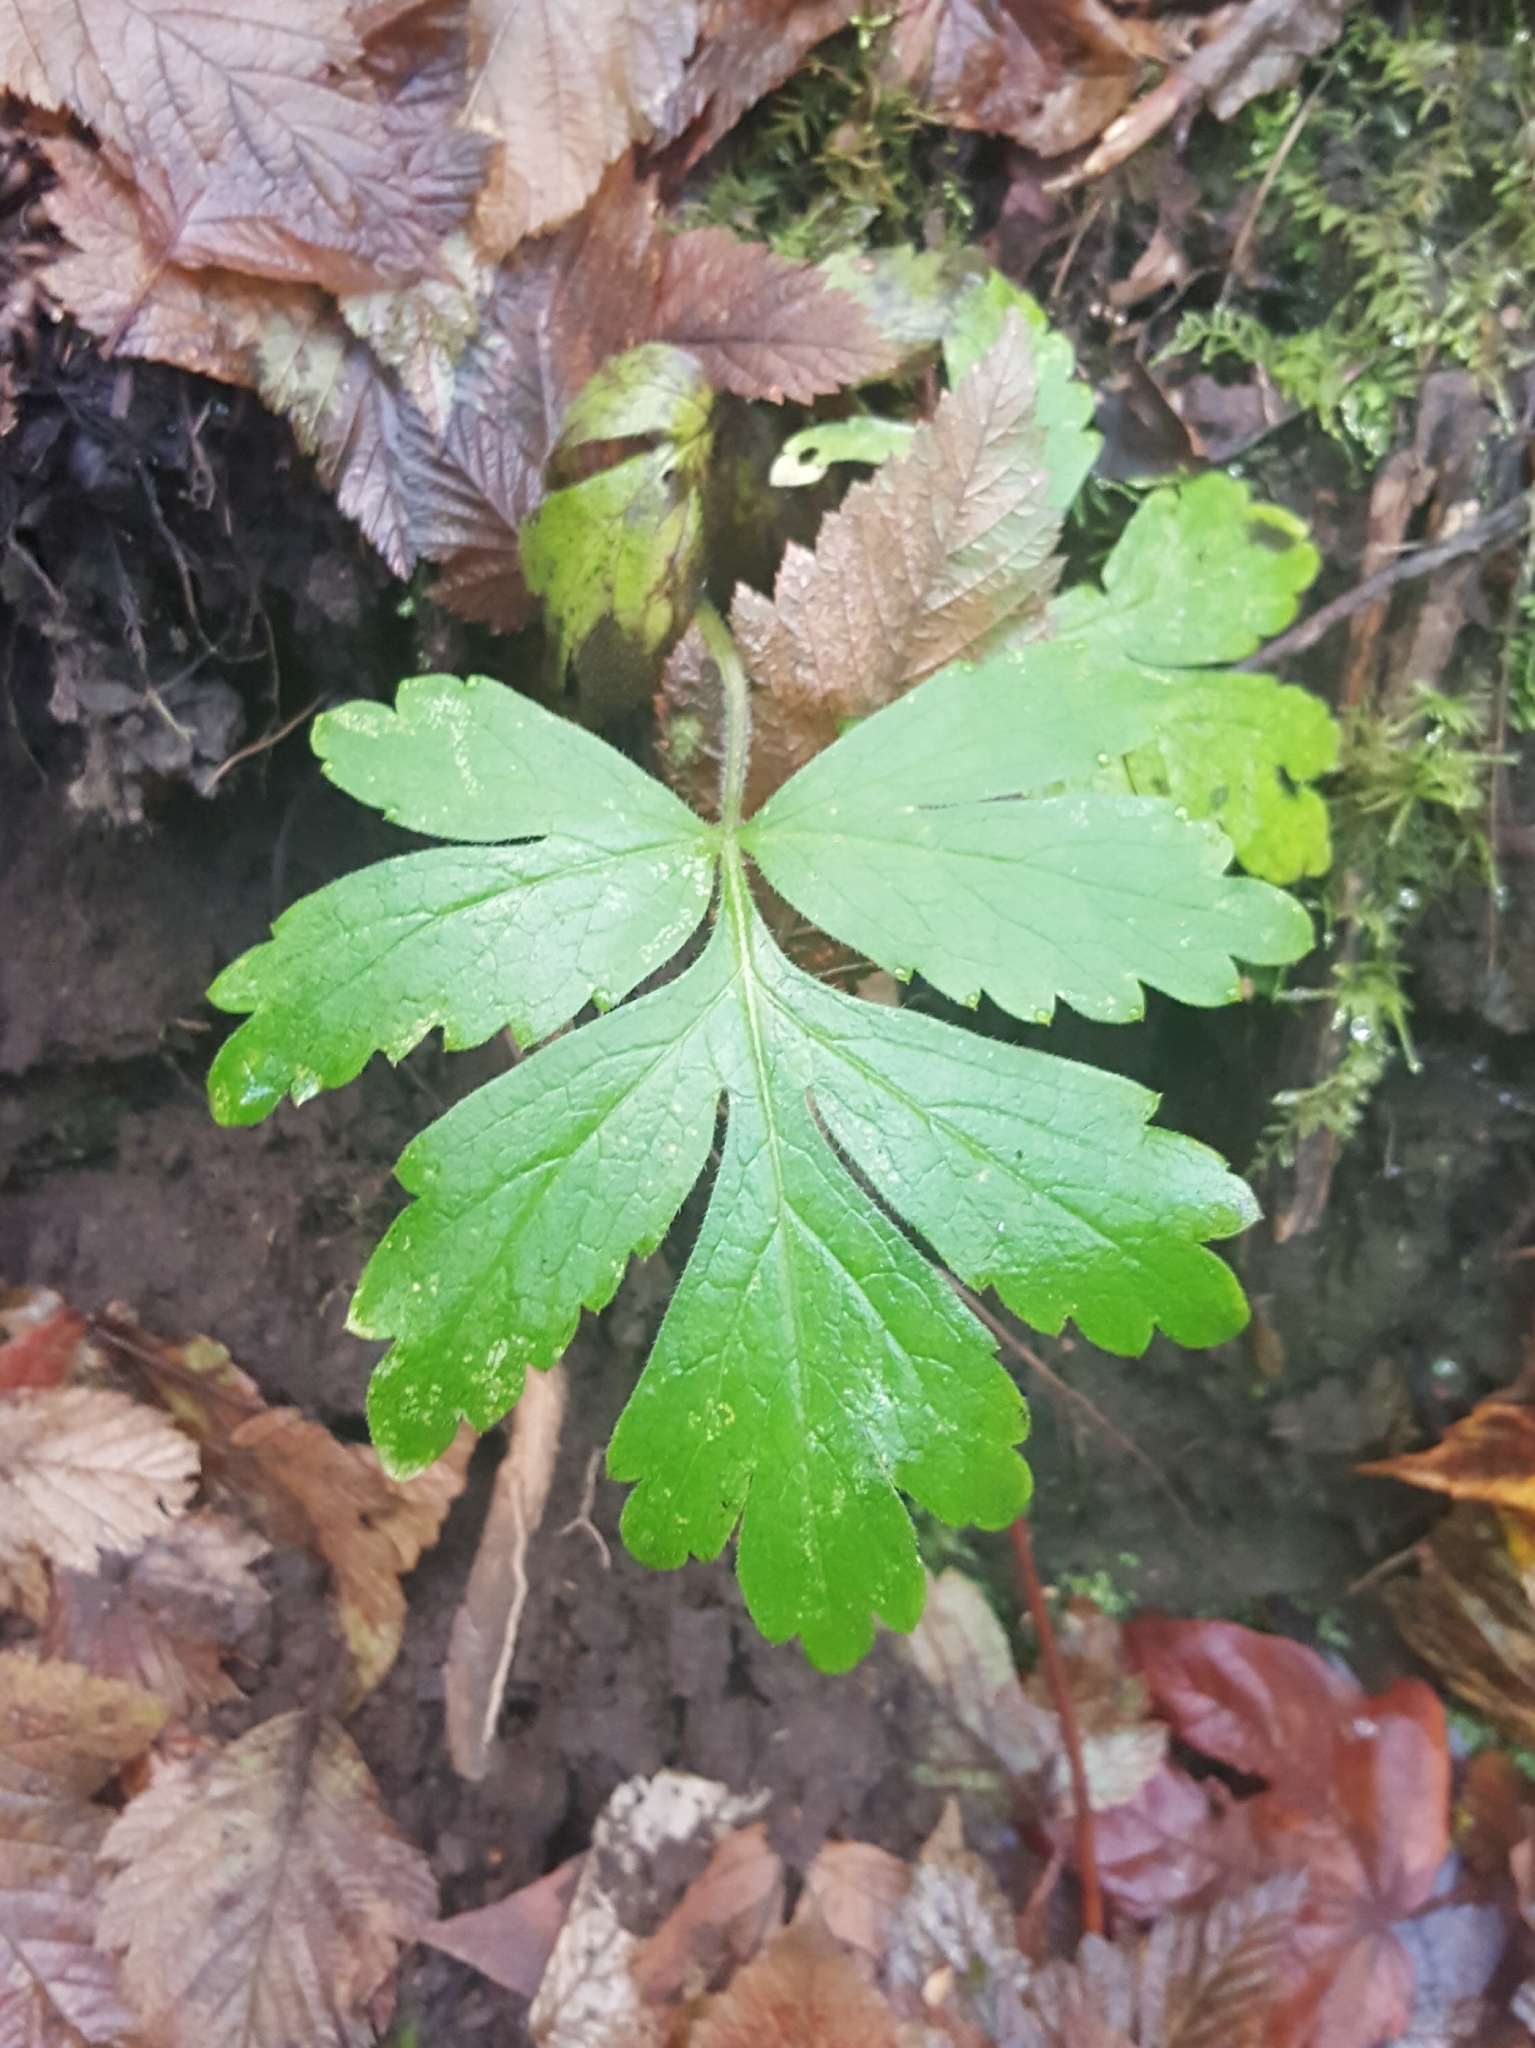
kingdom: Plantae
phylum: Tracheophyta
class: Magnoliopsida
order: Boraginales
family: Hydrophyllaceae
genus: Hydrophyllum
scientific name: Hydrophyllum tenuipes
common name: Pacific waterleaf
